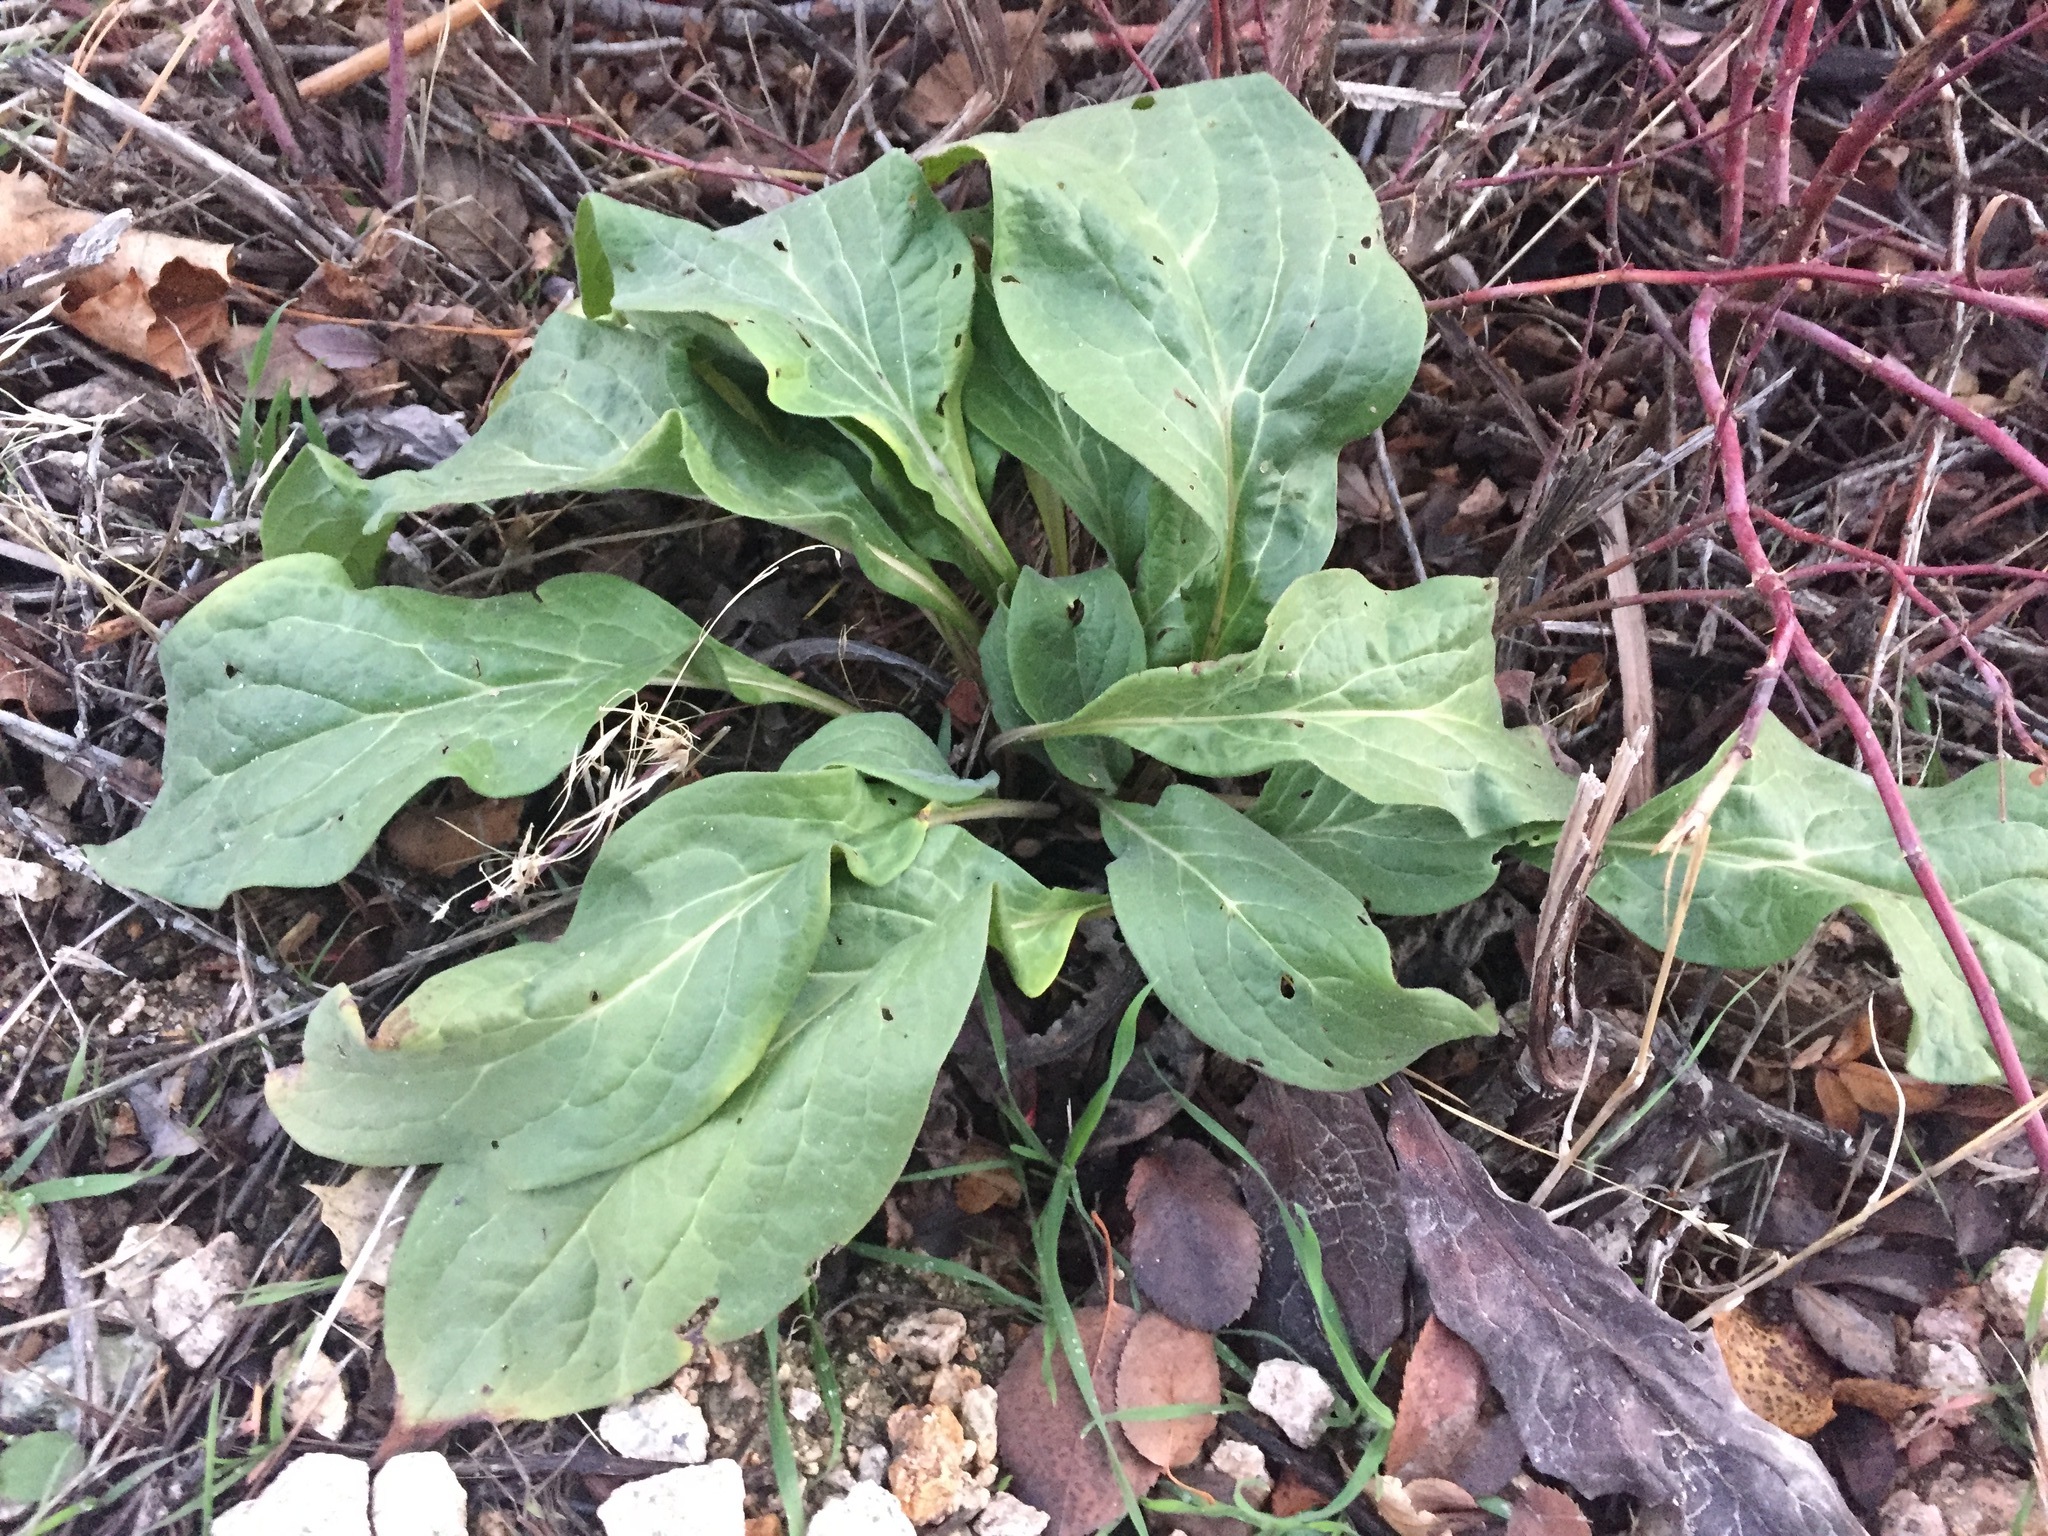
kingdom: Plantae
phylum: Tracheophyta
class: Magnoliopsida
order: Boraginales
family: Boraginaceae
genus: Cynoglossum
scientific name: Cynoglossum officinale
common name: Hound's-tongue
